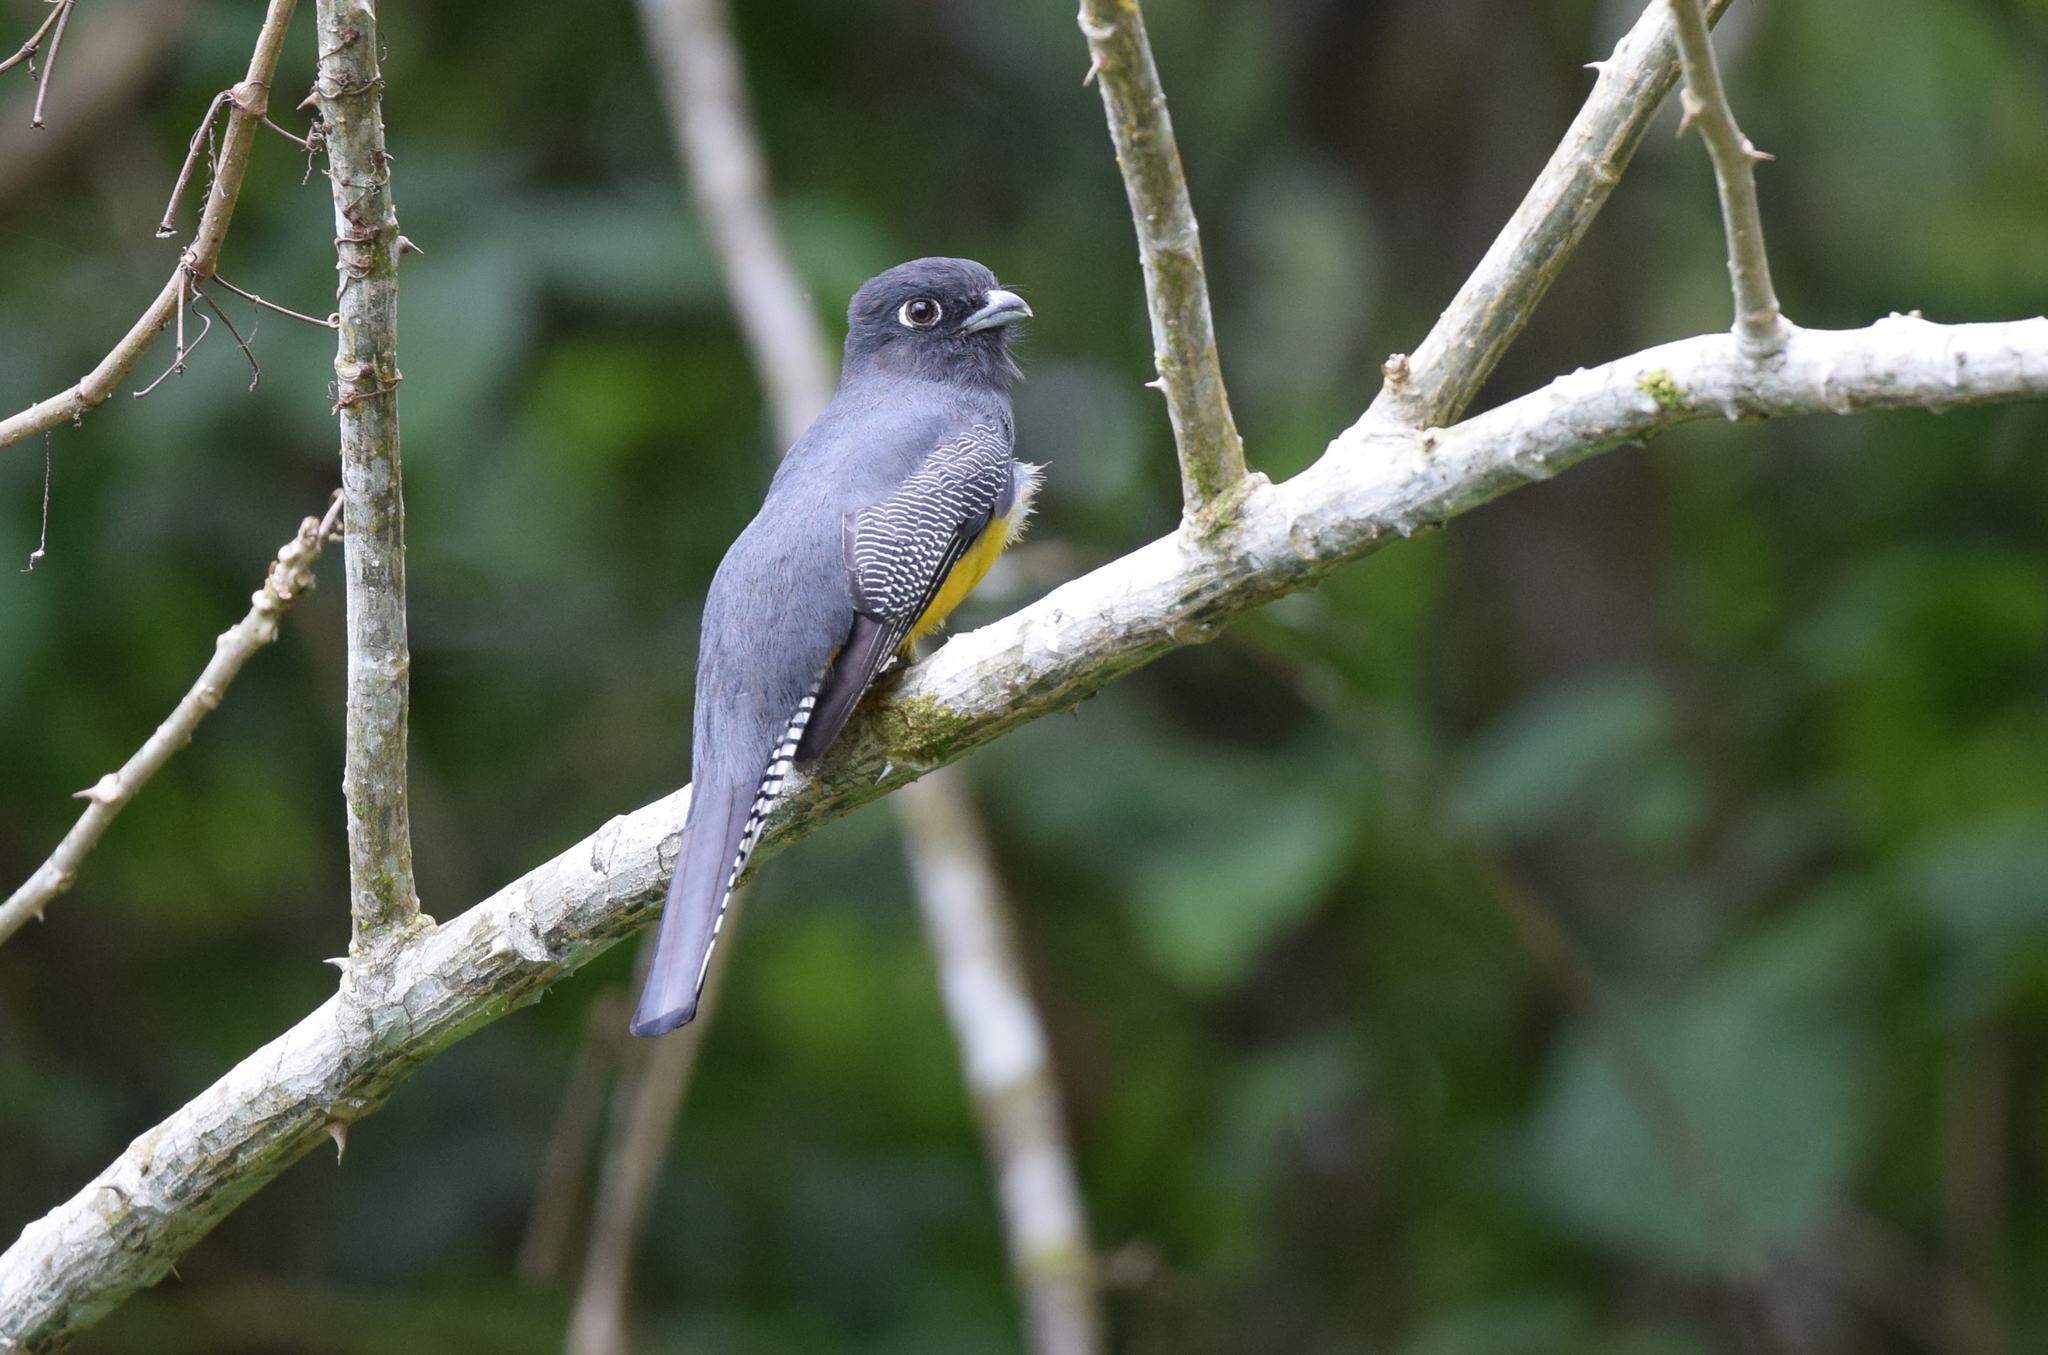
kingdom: Animalia
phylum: Chordata
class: Aves
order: Trogoniformes
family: Trogonidae
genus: Trogon
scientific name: Trogon caligatus
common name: Gartered trogon
